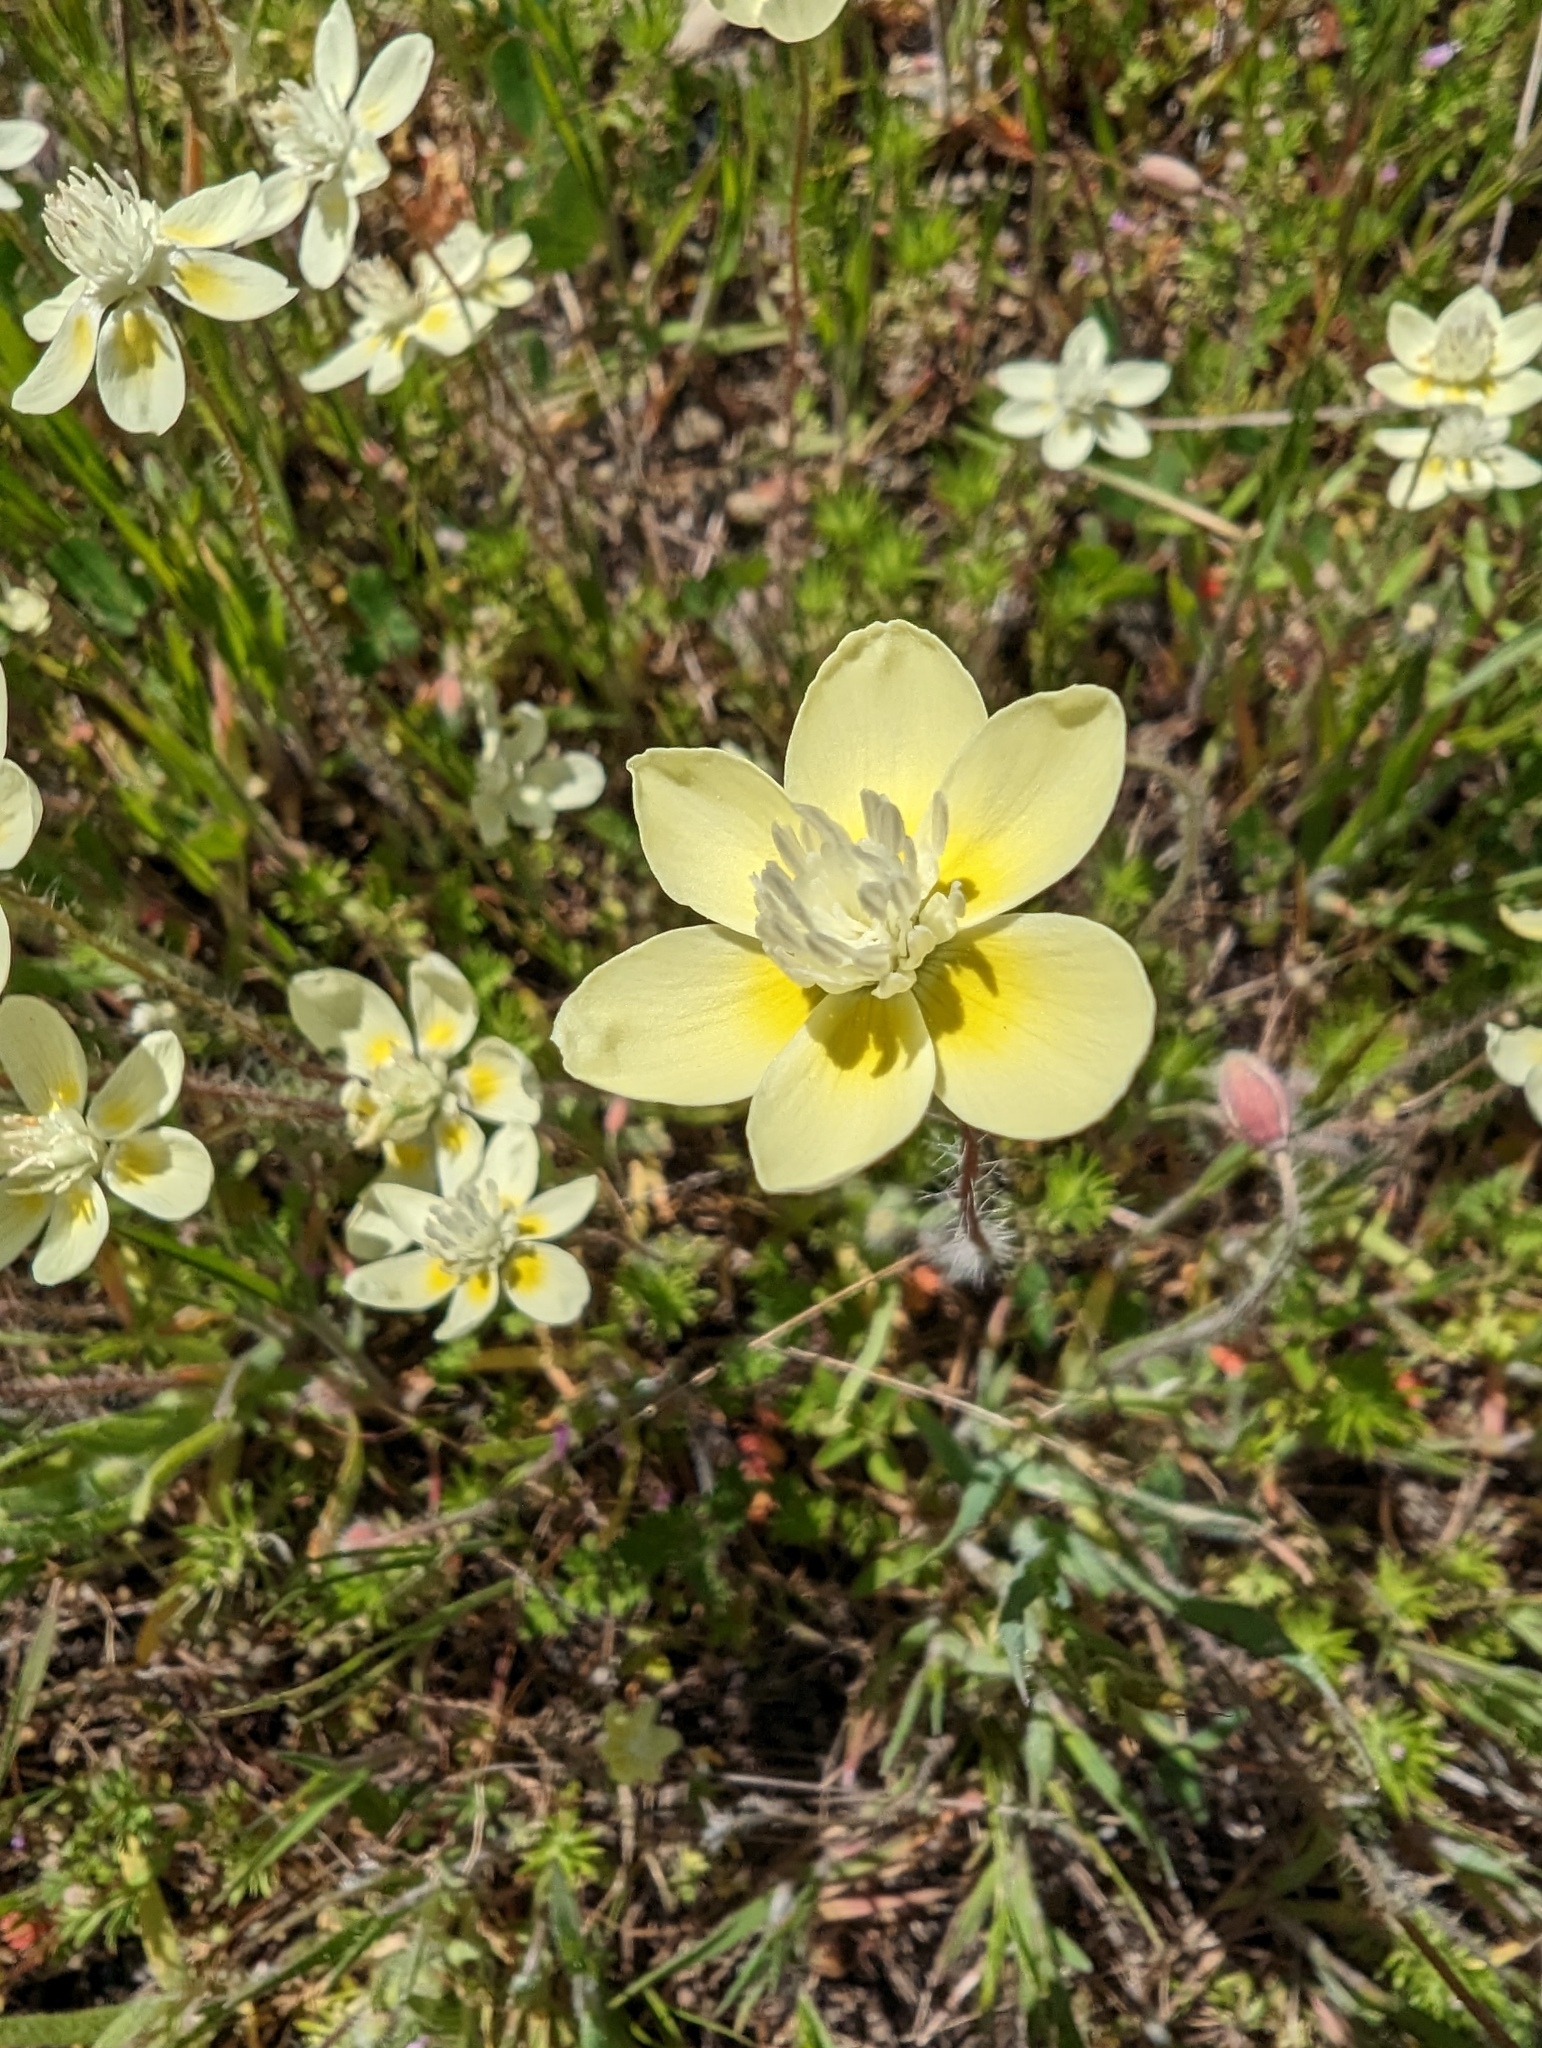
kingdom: Plantae
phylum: Tracheophyta
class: Magnoliopsida
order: Ranunculales
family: Papaveraceae
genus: Platystemon
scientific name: Platystemon californicus
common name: Cream-cups
